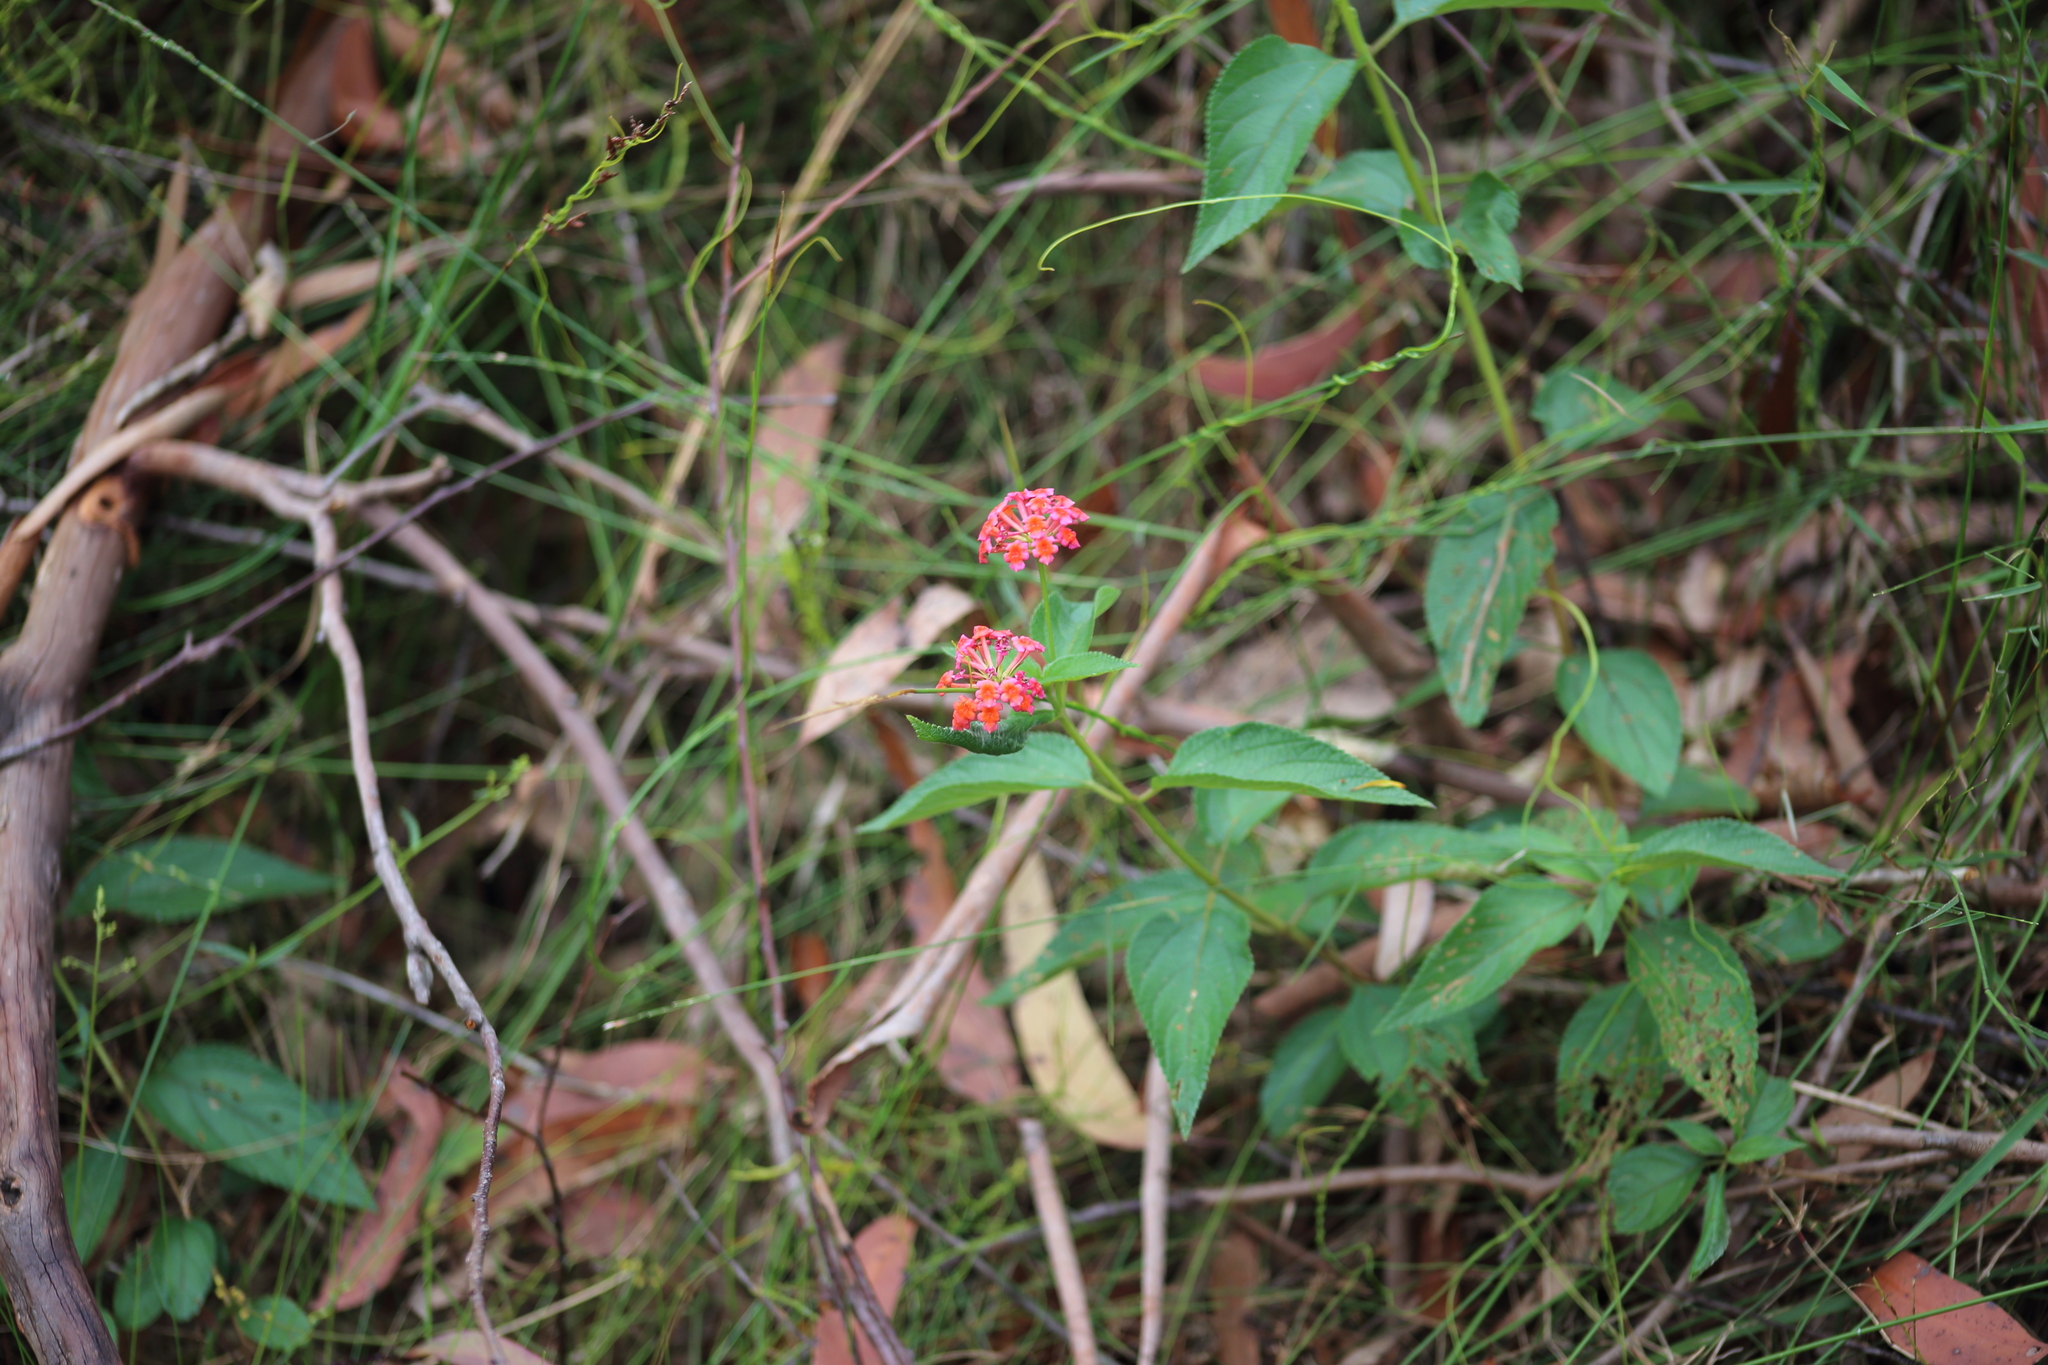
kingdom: Plantae
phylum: Tracheophyta
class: Magnoliopsida
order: Lamiales
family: Verbenaceae
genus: Lantana
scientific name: Lantana camara
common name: Lantana
